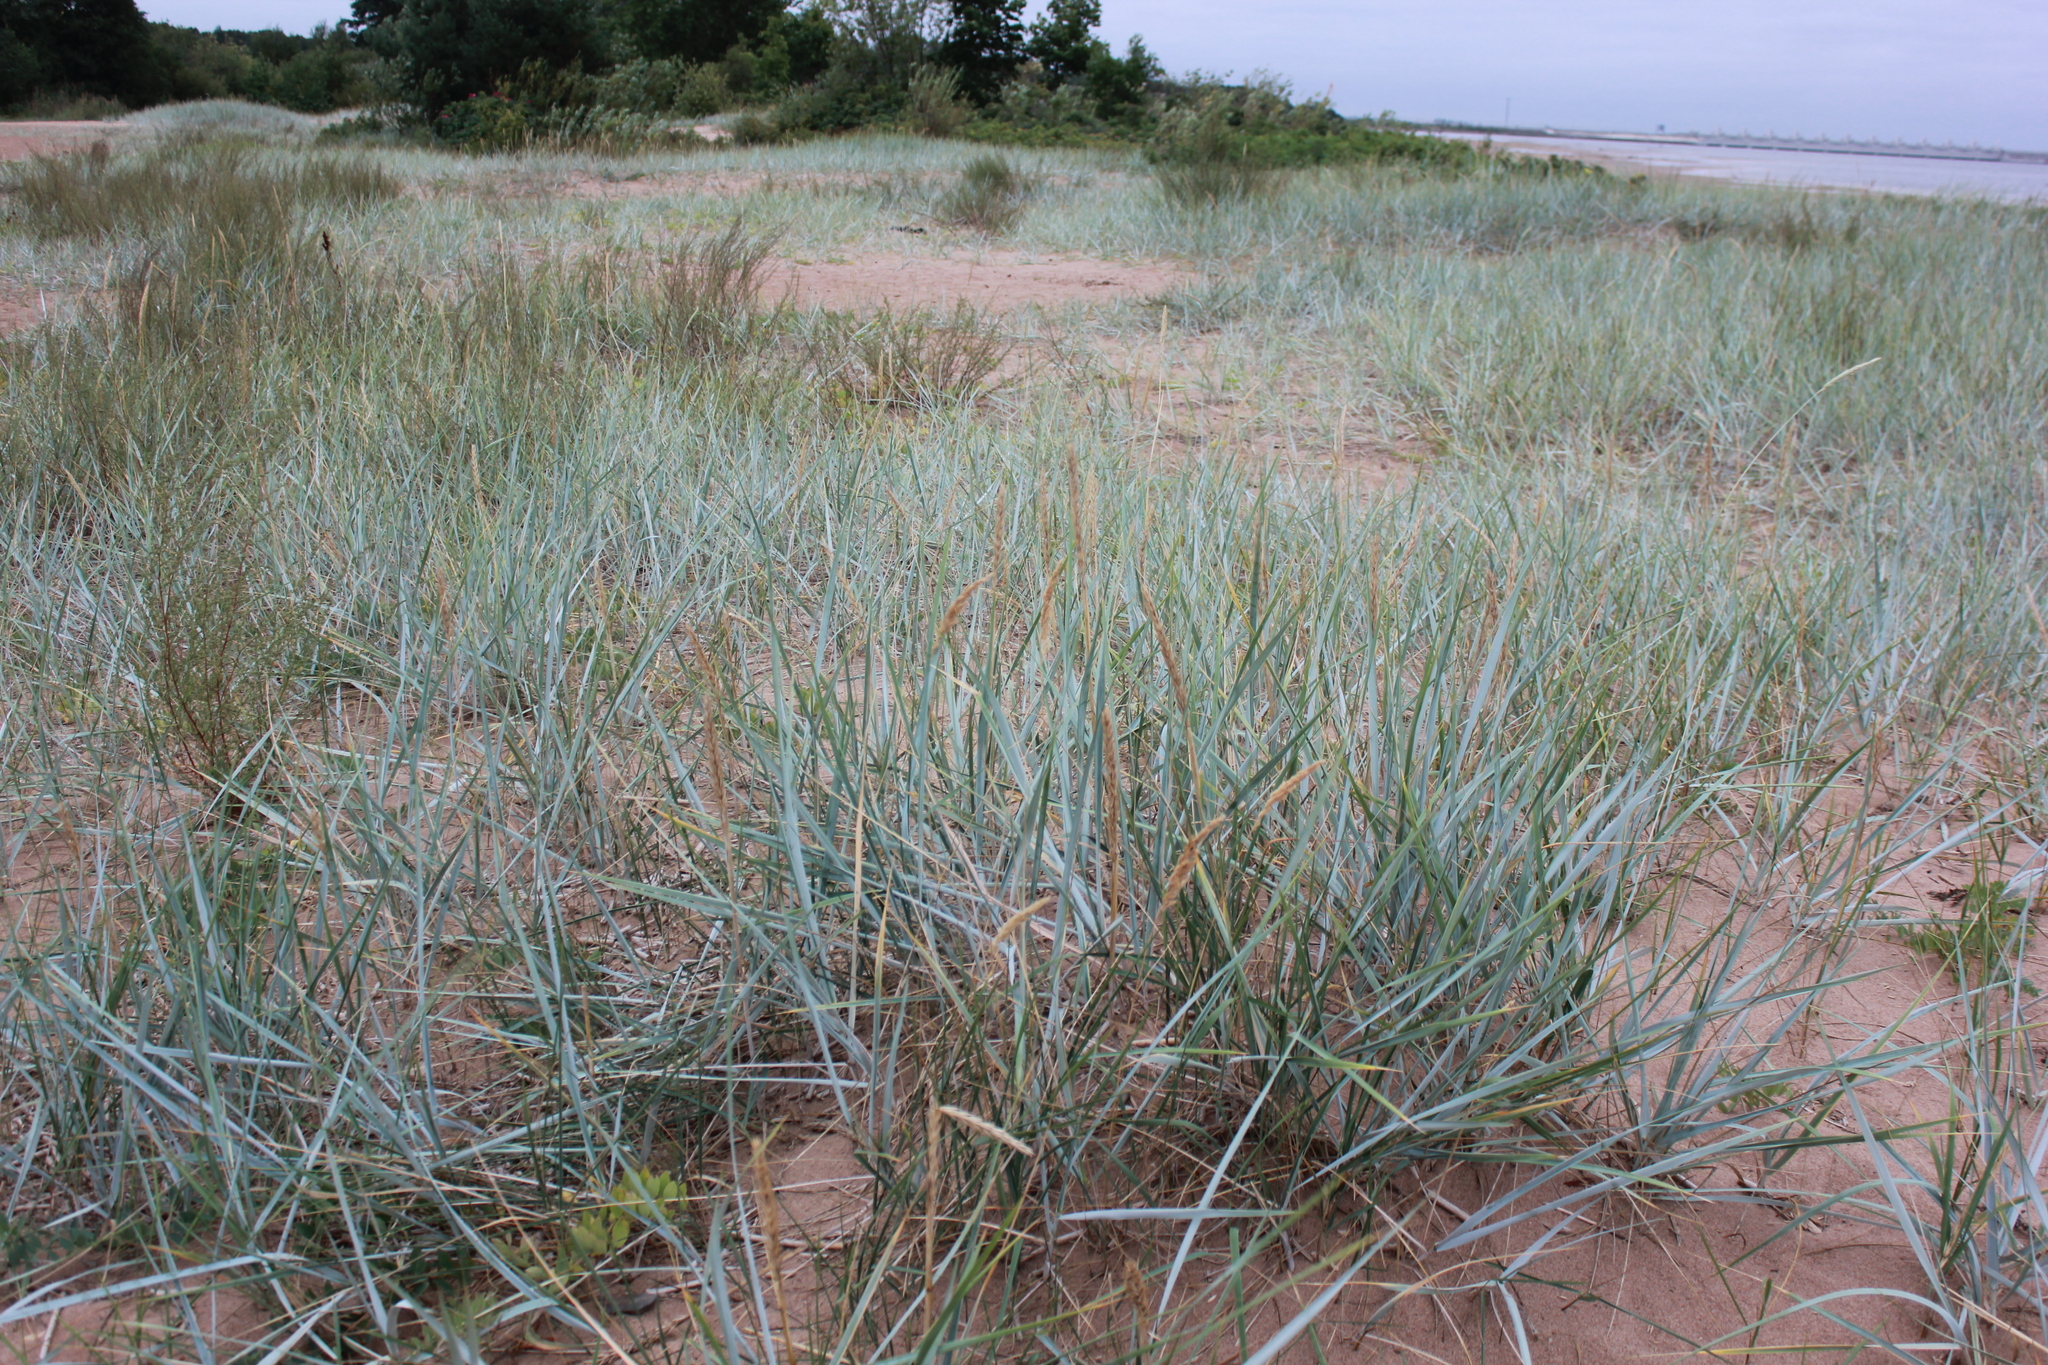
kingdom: Plantae
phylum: Tracheophyta
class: Liliopsida
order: Poales
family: Poaceae
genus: Leymus
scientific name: Leymus arenarius
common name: Lyme-grass
